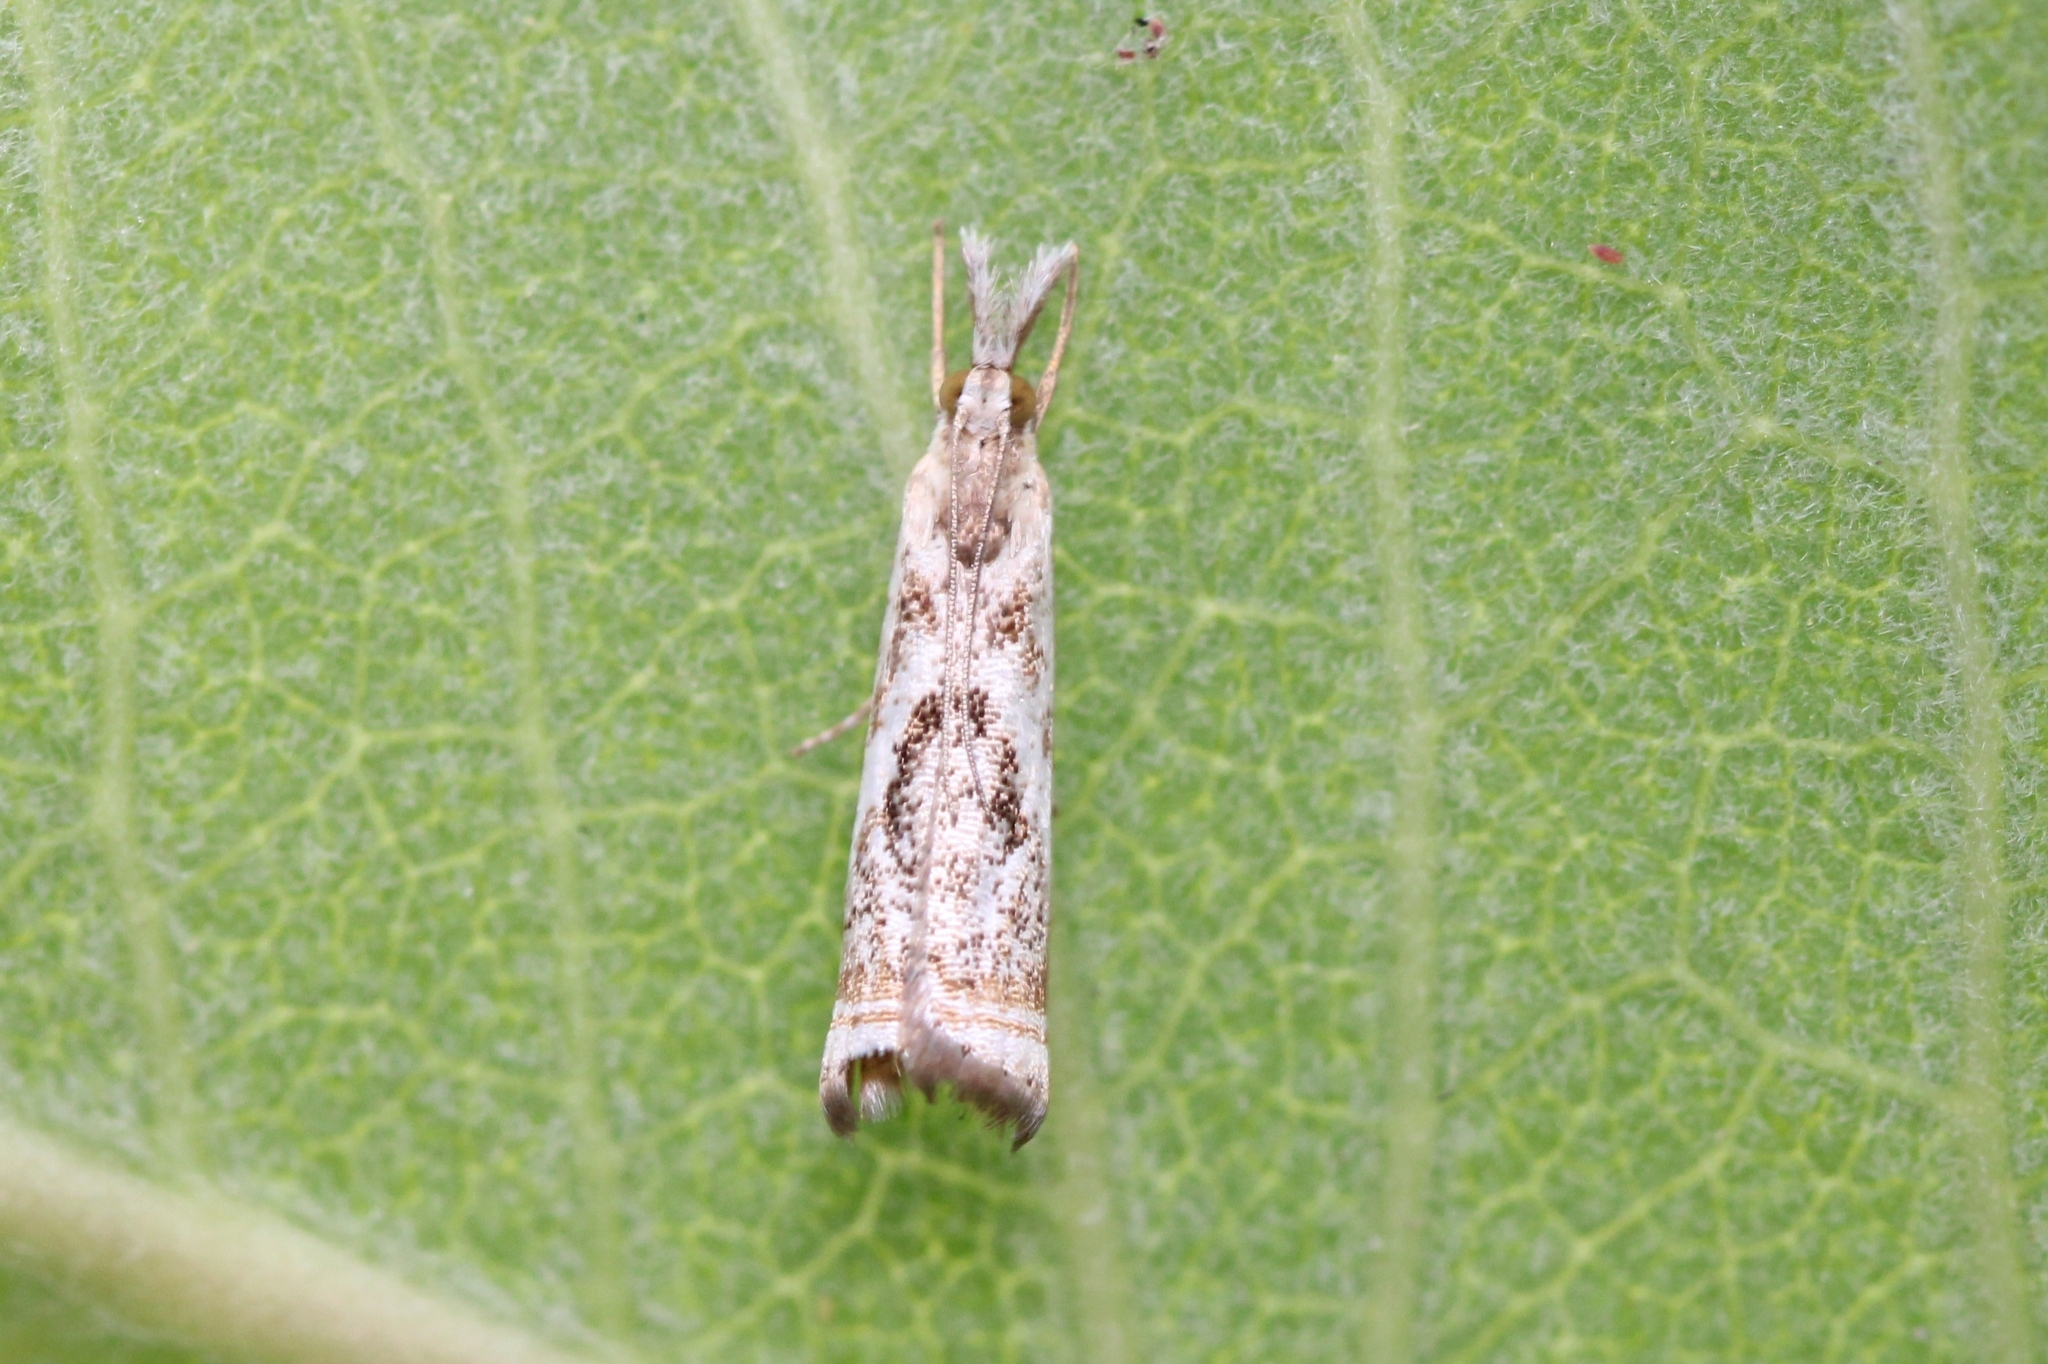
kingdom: Animalia
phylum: Arthropoda
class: Insecta
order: Lepidoptera
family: Crambidae
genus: Microcrambus
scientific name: Microcrambus elegans
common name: Elegant grass-veneer
